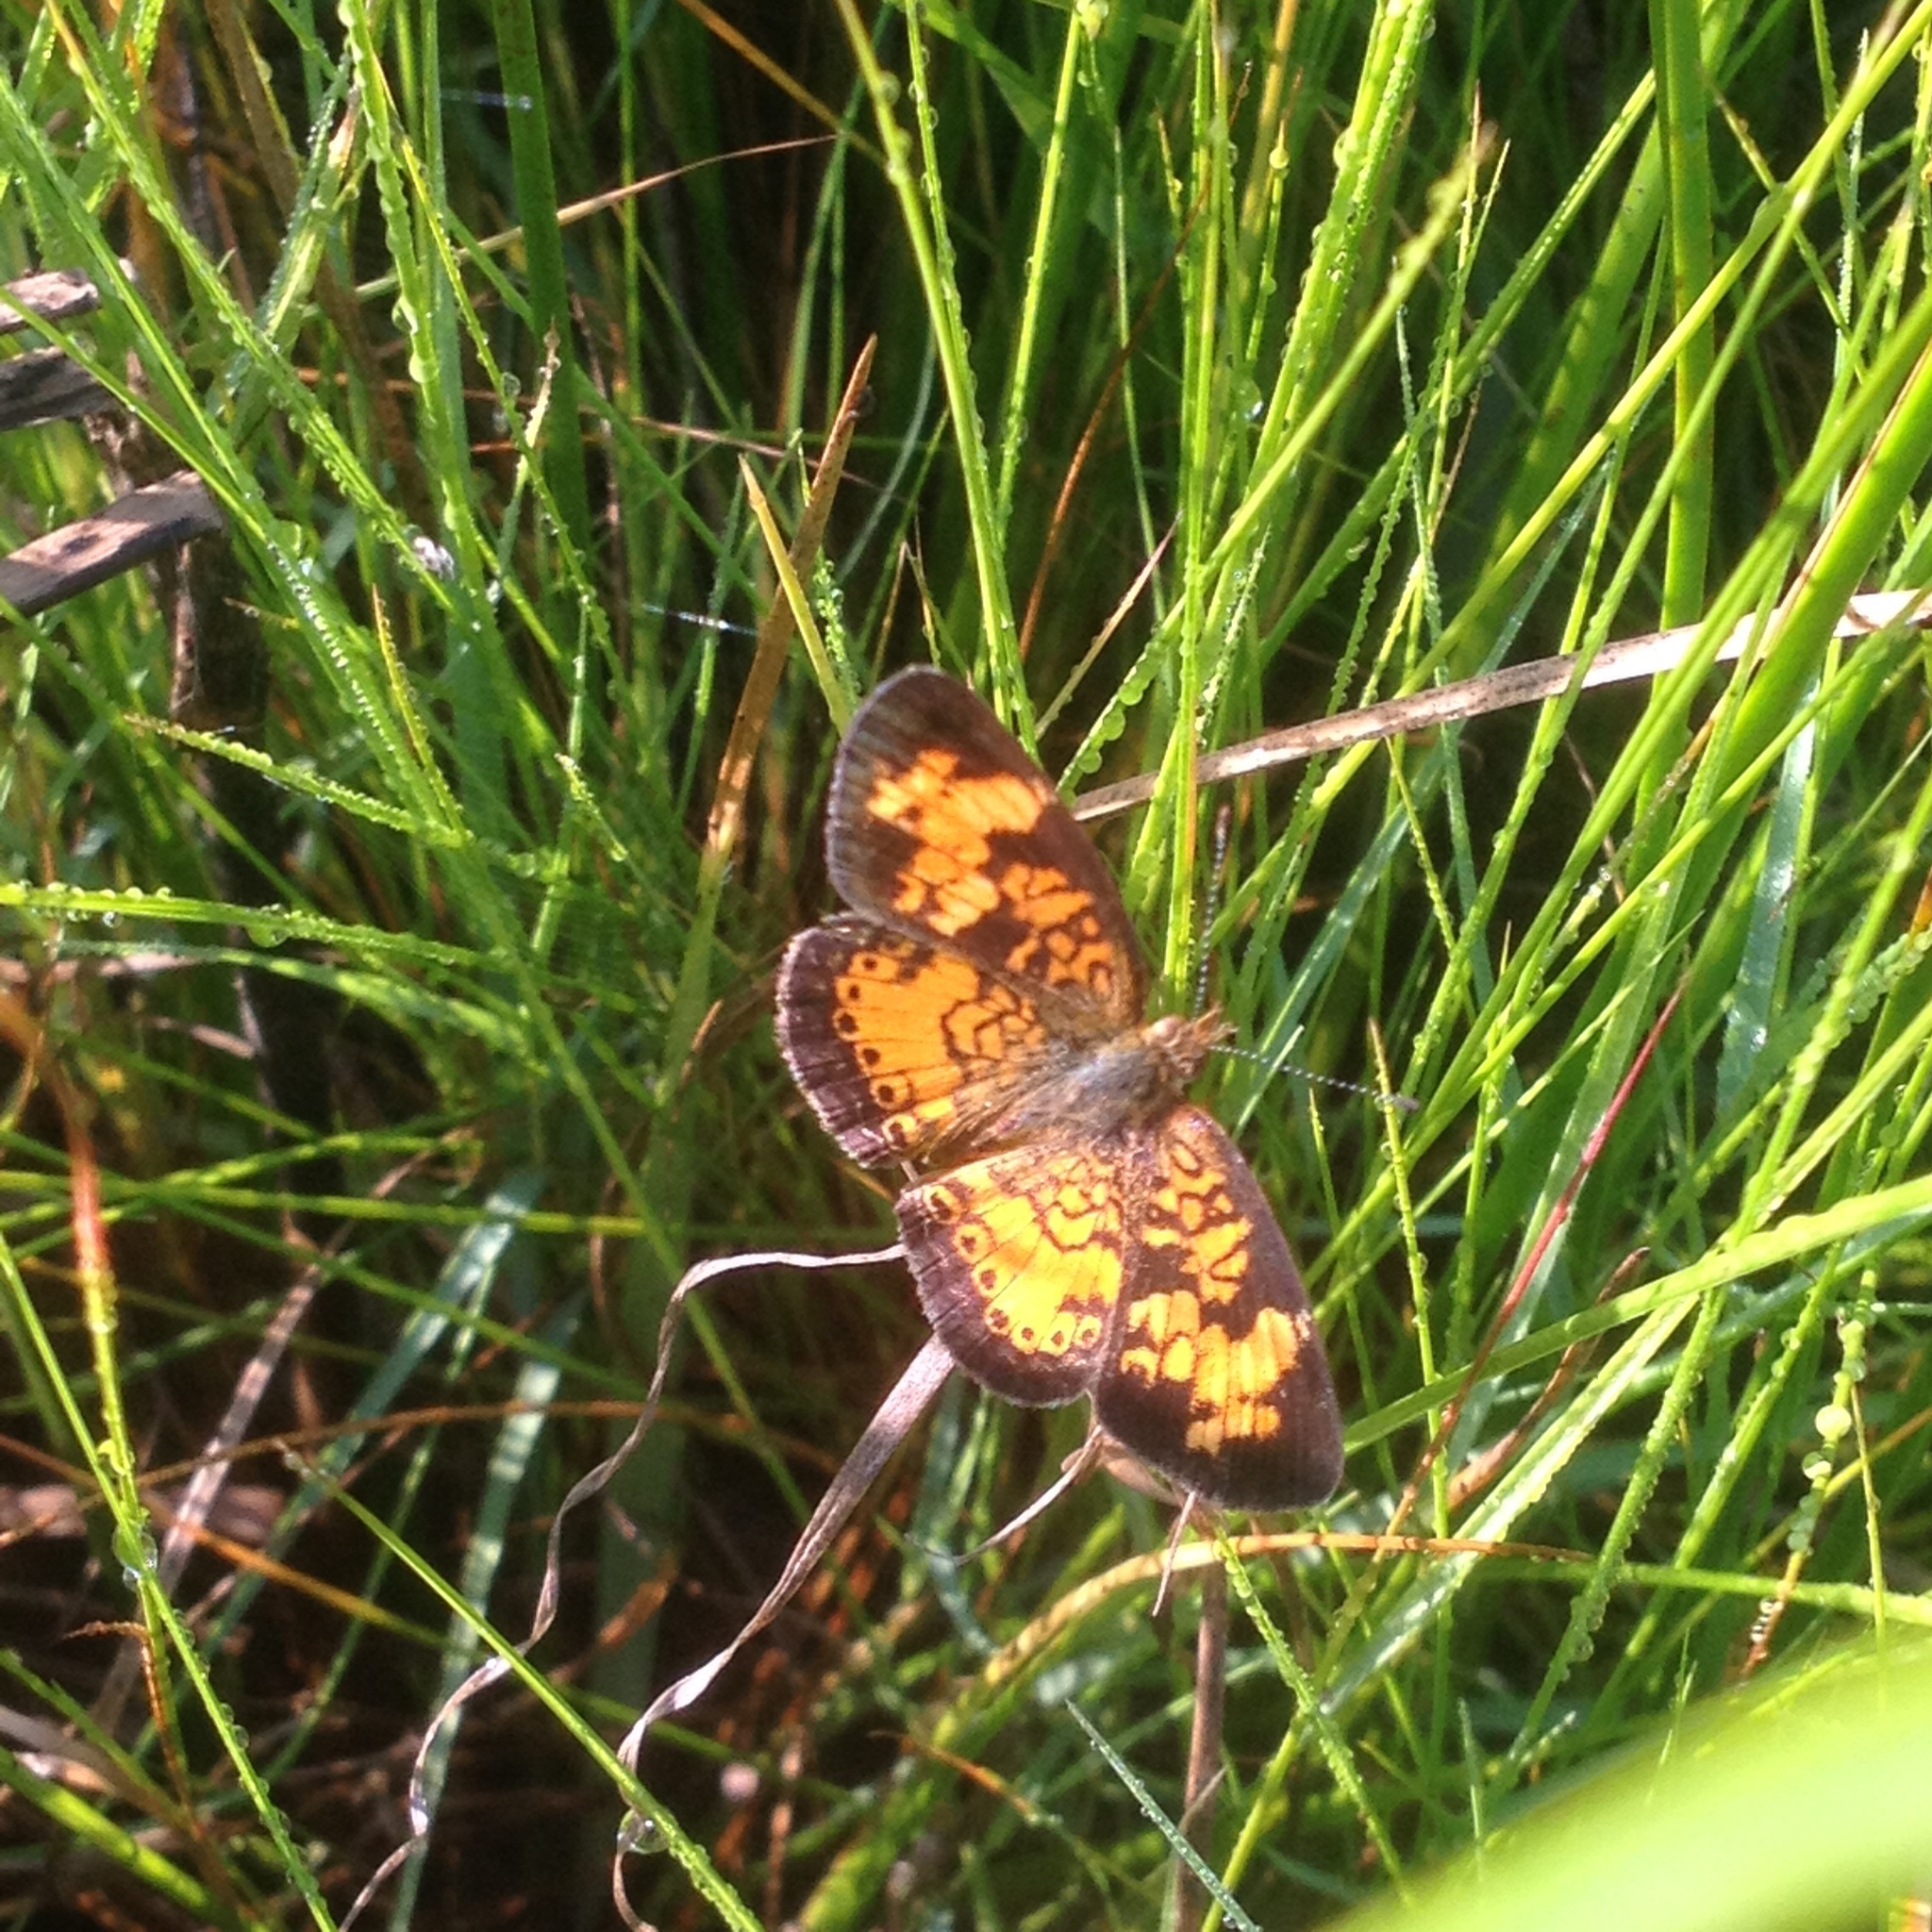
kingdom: Animalia
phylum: Arthropoda
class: Insecta
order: Lepidoptera
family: Nymphalidae
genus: Phyciodes
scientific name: Phyciodes tharos
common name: Pearl crescent
